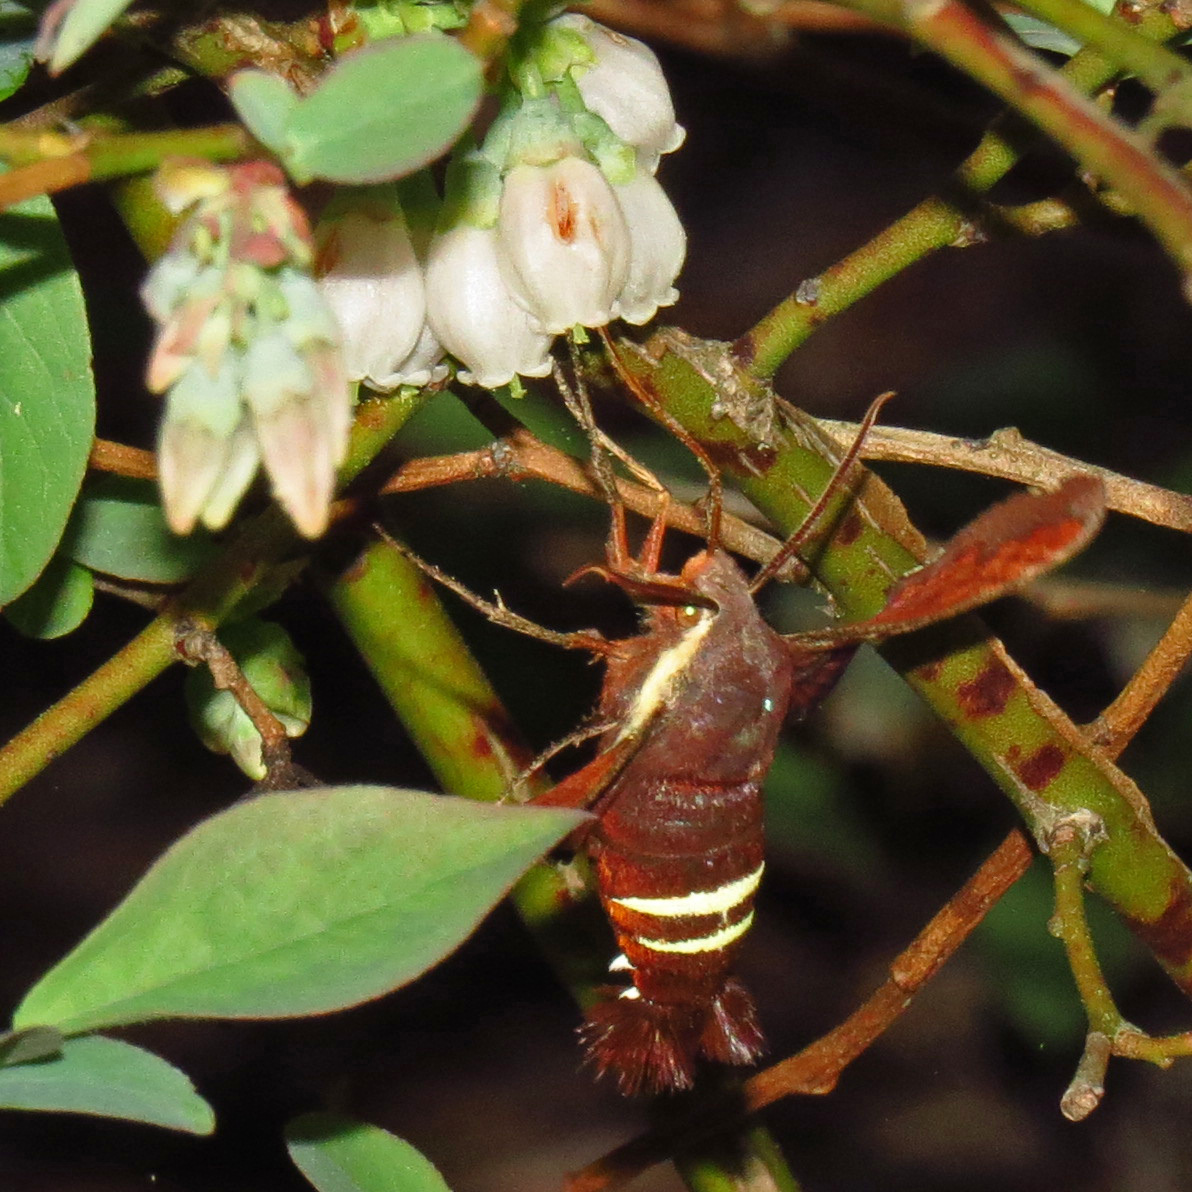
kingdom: Animalia
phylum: Arthropoda
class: Insecta
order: Lepidoptera
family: Sphingidae
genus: Amphion
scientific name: Amphion floridensis
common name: Nessus sphinx
